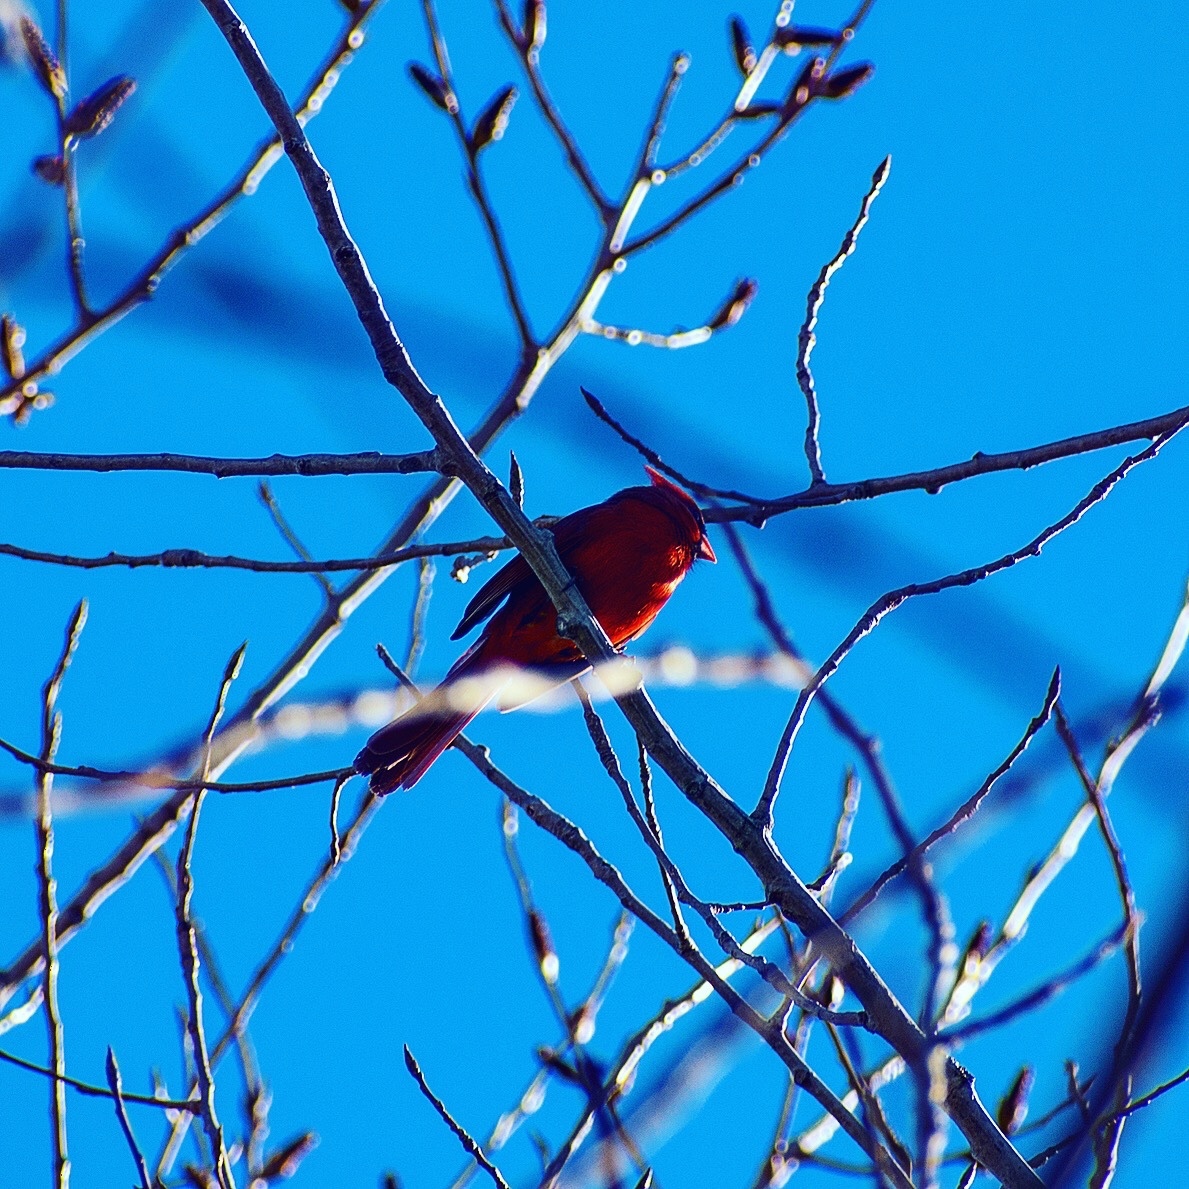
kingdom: Animalia
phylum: Chordata
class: Aves
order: Passeriformes
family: Cardinalidae
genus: Cardinalis
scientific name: Cardinalis cardinalis
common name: Northern cardinal
